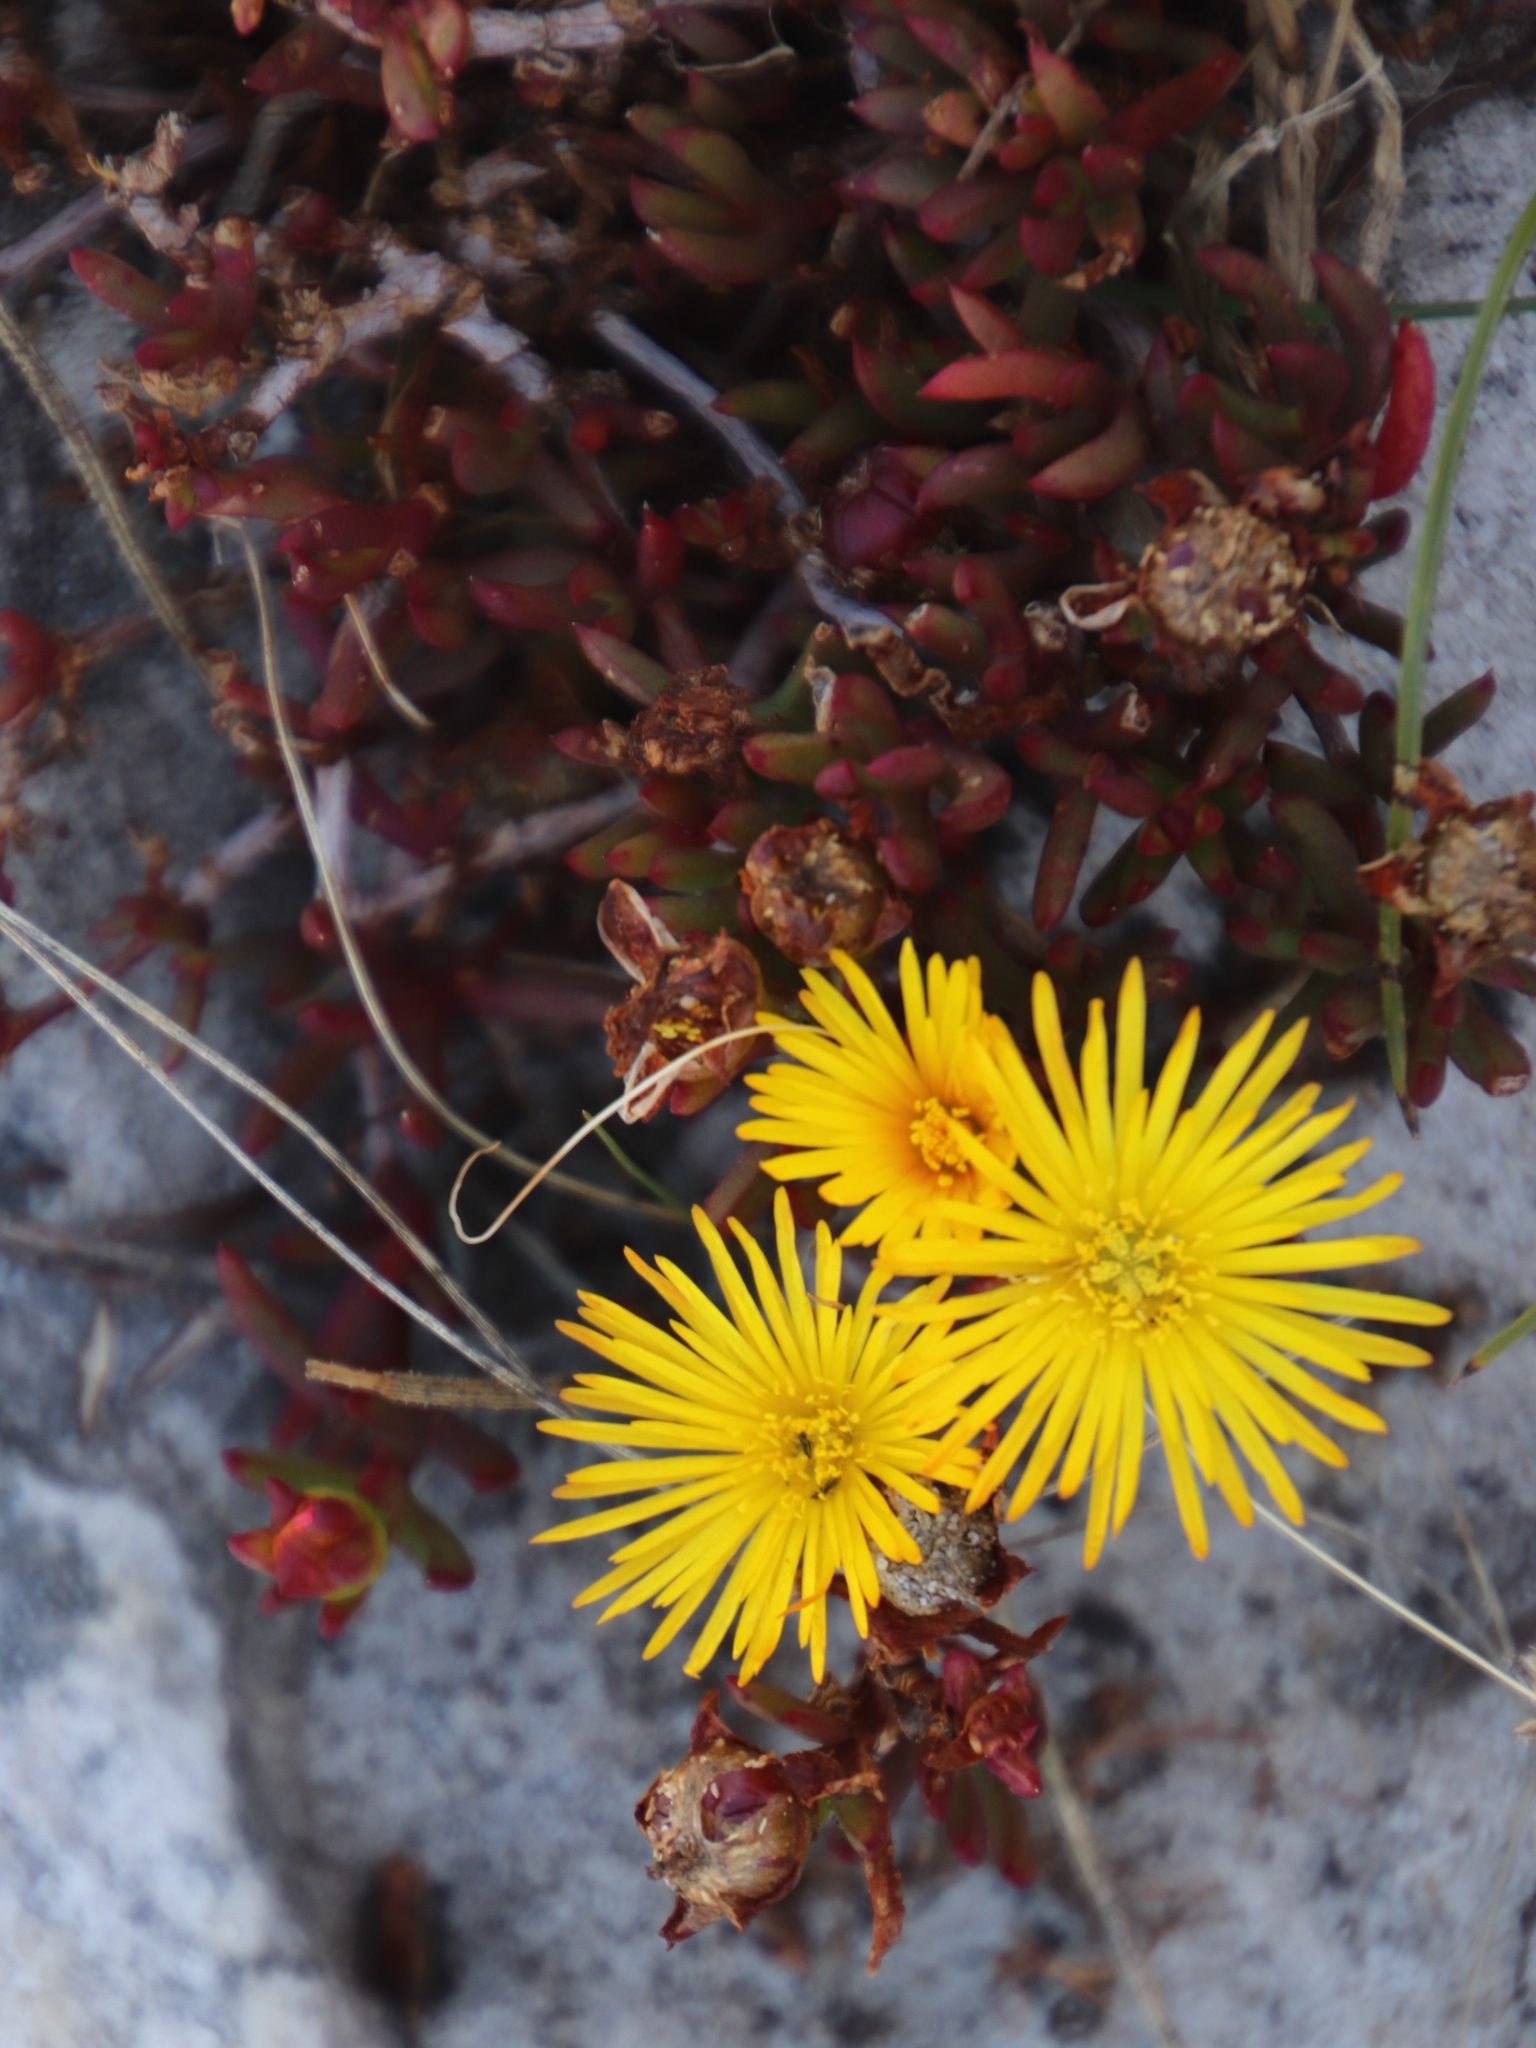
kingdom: Plantae
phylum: Tracheophyta
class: Magnoliopsida
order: Caryophyllales
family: Aizoaceae
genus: Lampranthus
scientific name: Lampranthus promontorii
